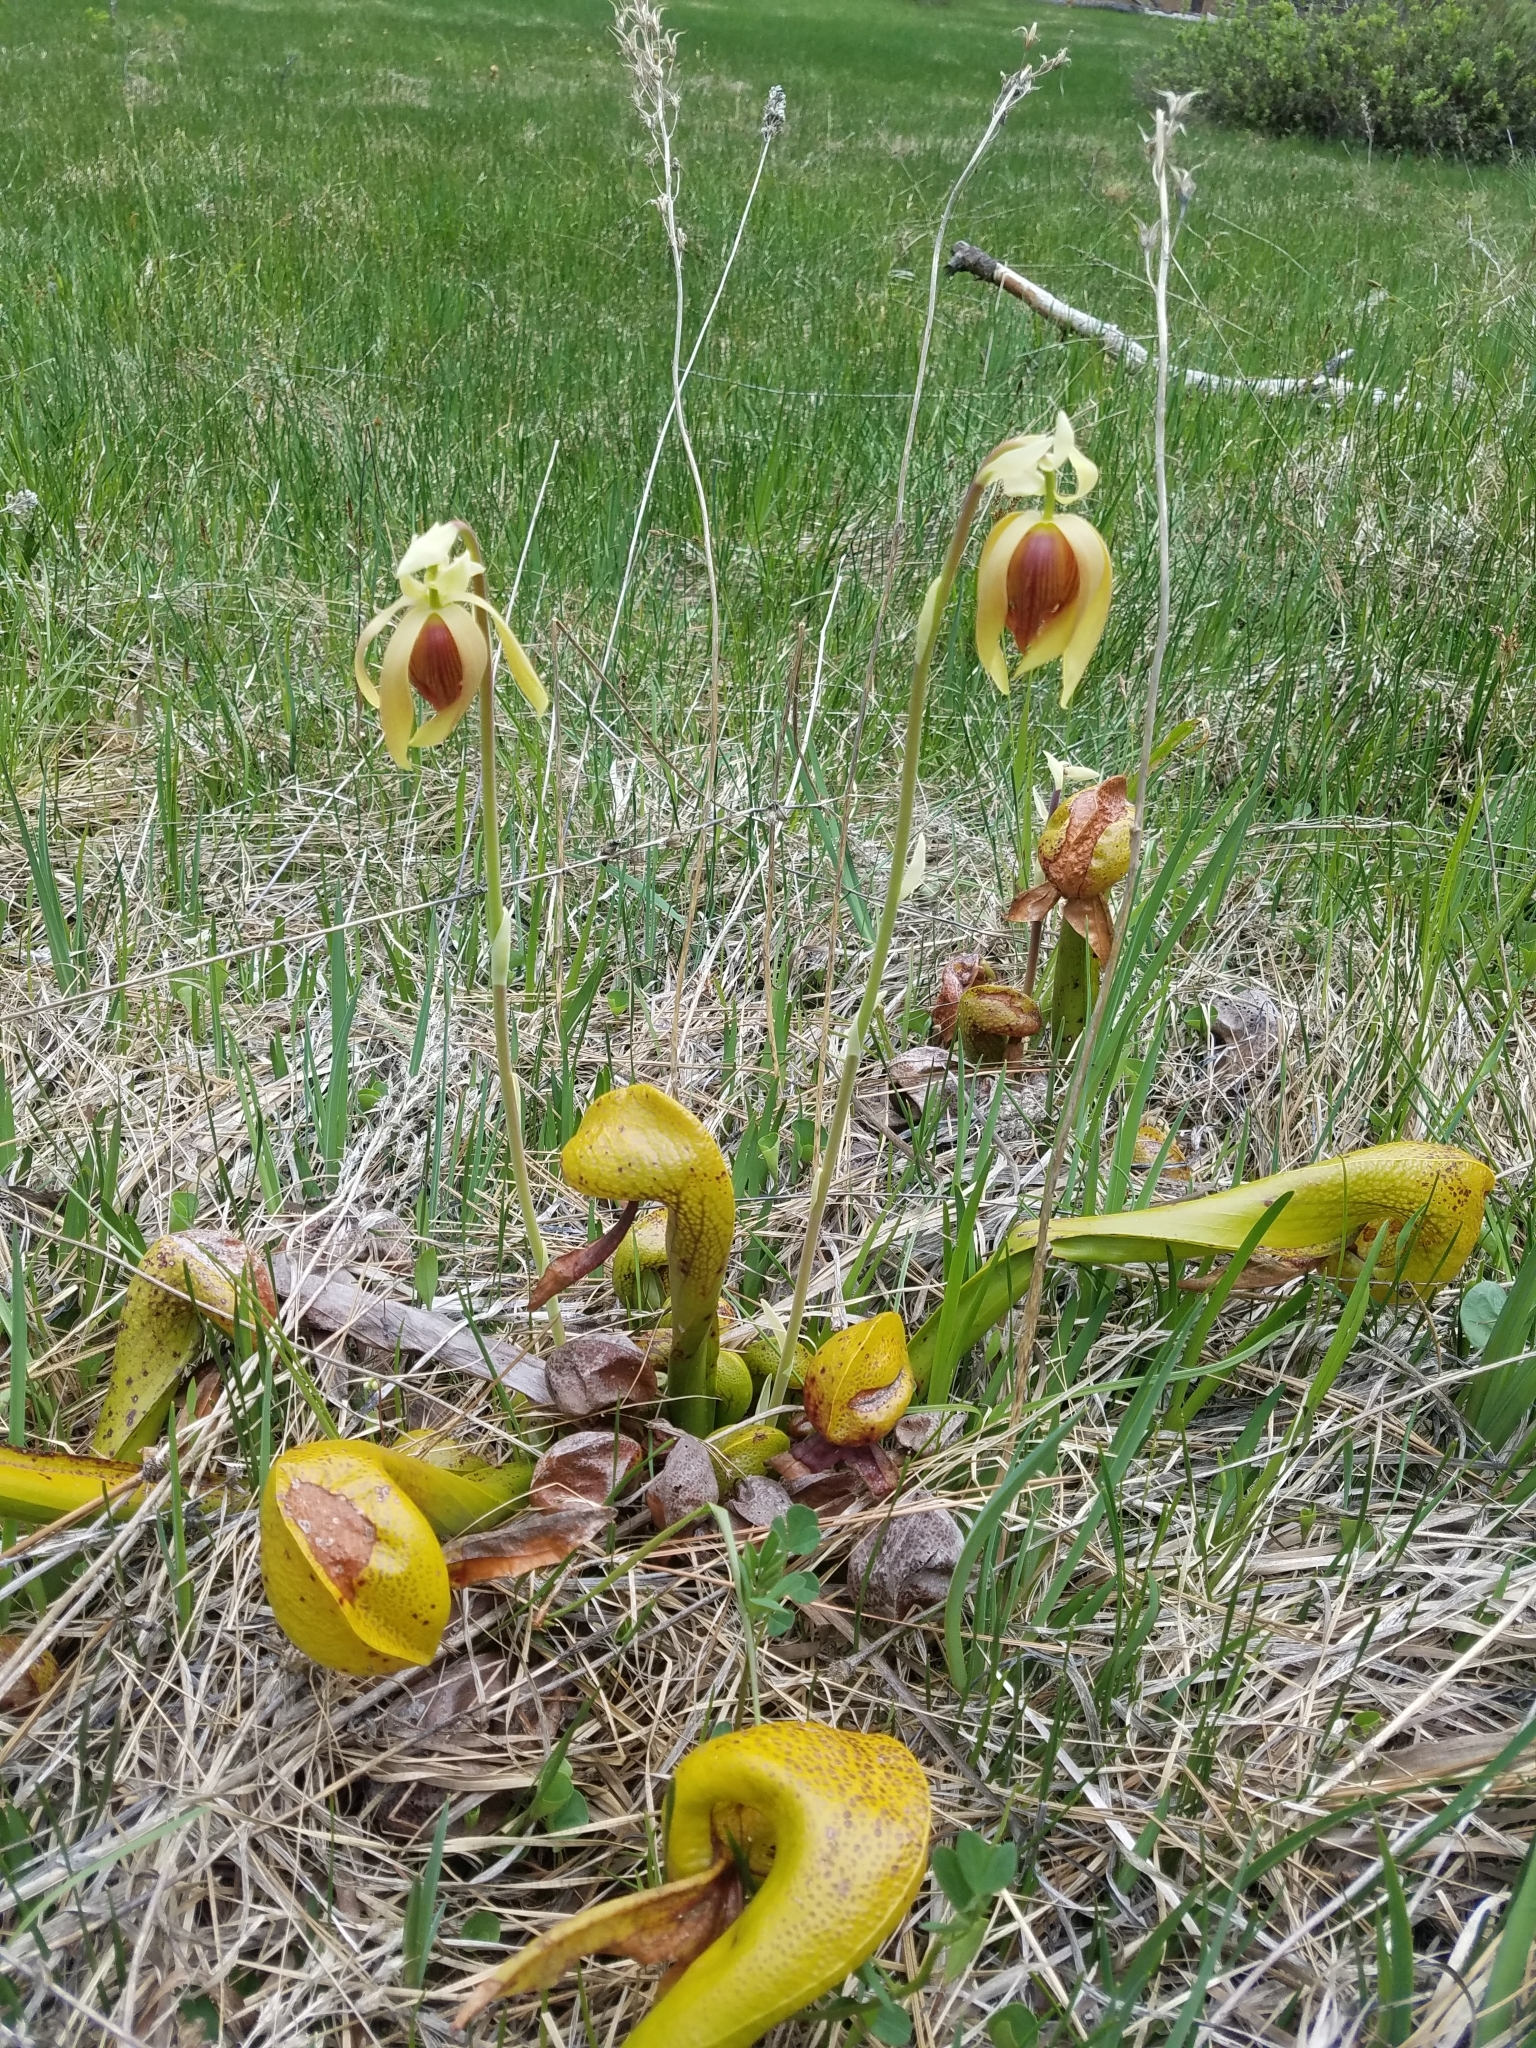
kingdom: Plantae
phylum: Tracheophyta
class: Magnoliopsida
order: Ericales
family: Sarraceniaceae
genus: Darlingtonia
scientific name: Darlingtonia californica
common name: California pitcher plant
